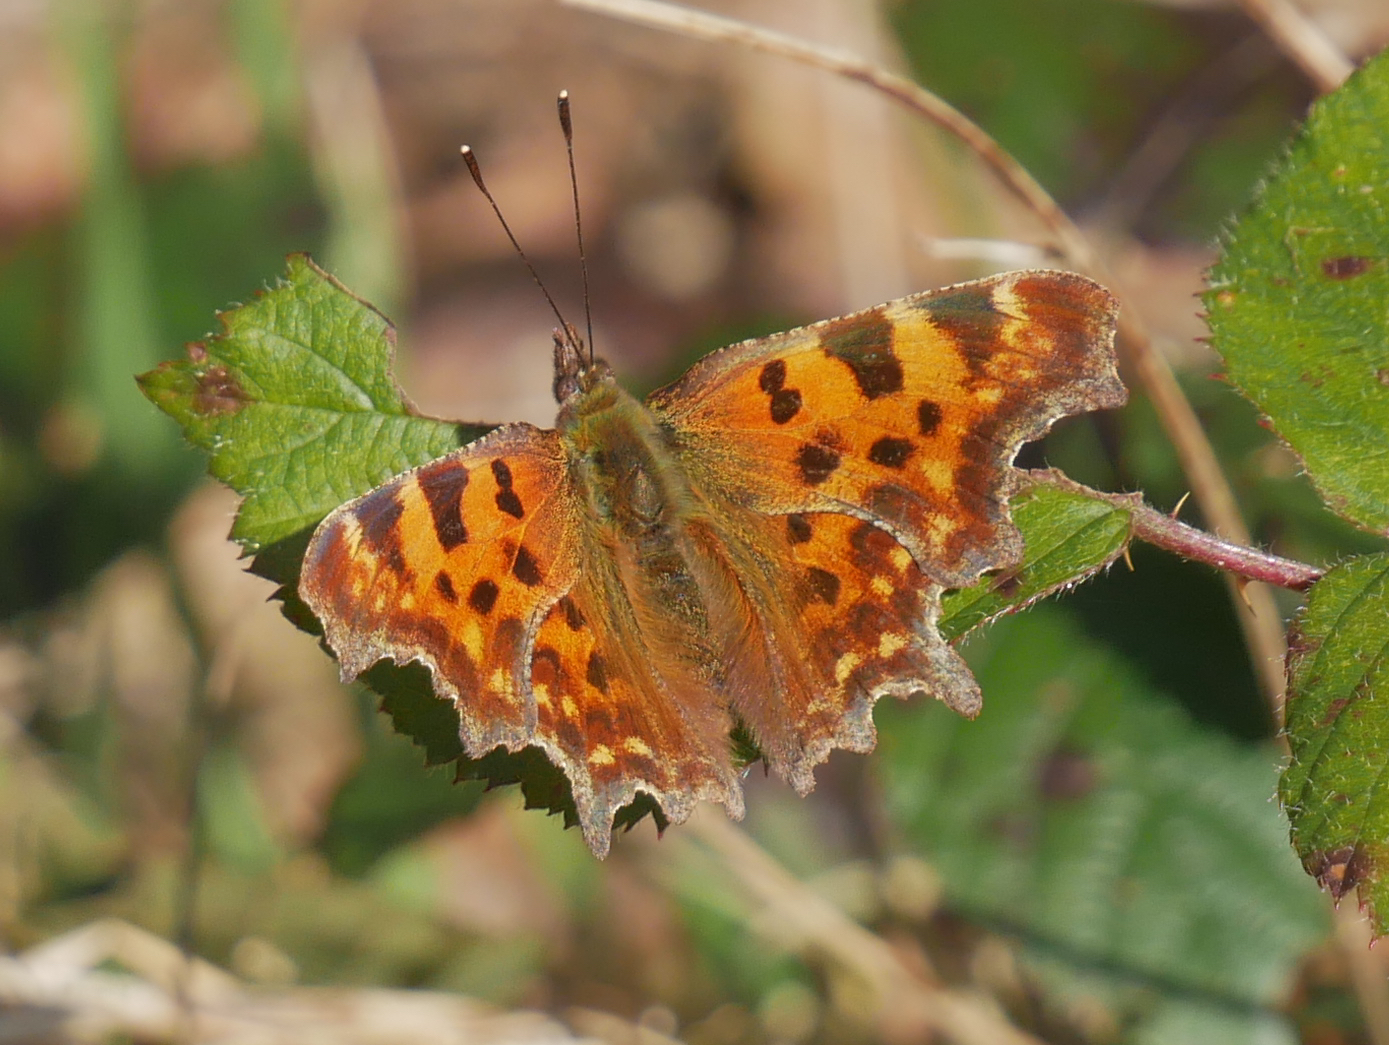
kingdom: Animalia
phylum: Arthropoda
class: Insecta
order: Lepidoptera
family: Nymphalidae
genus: Polygonia
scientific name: Polygonia c-album
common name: Comma
